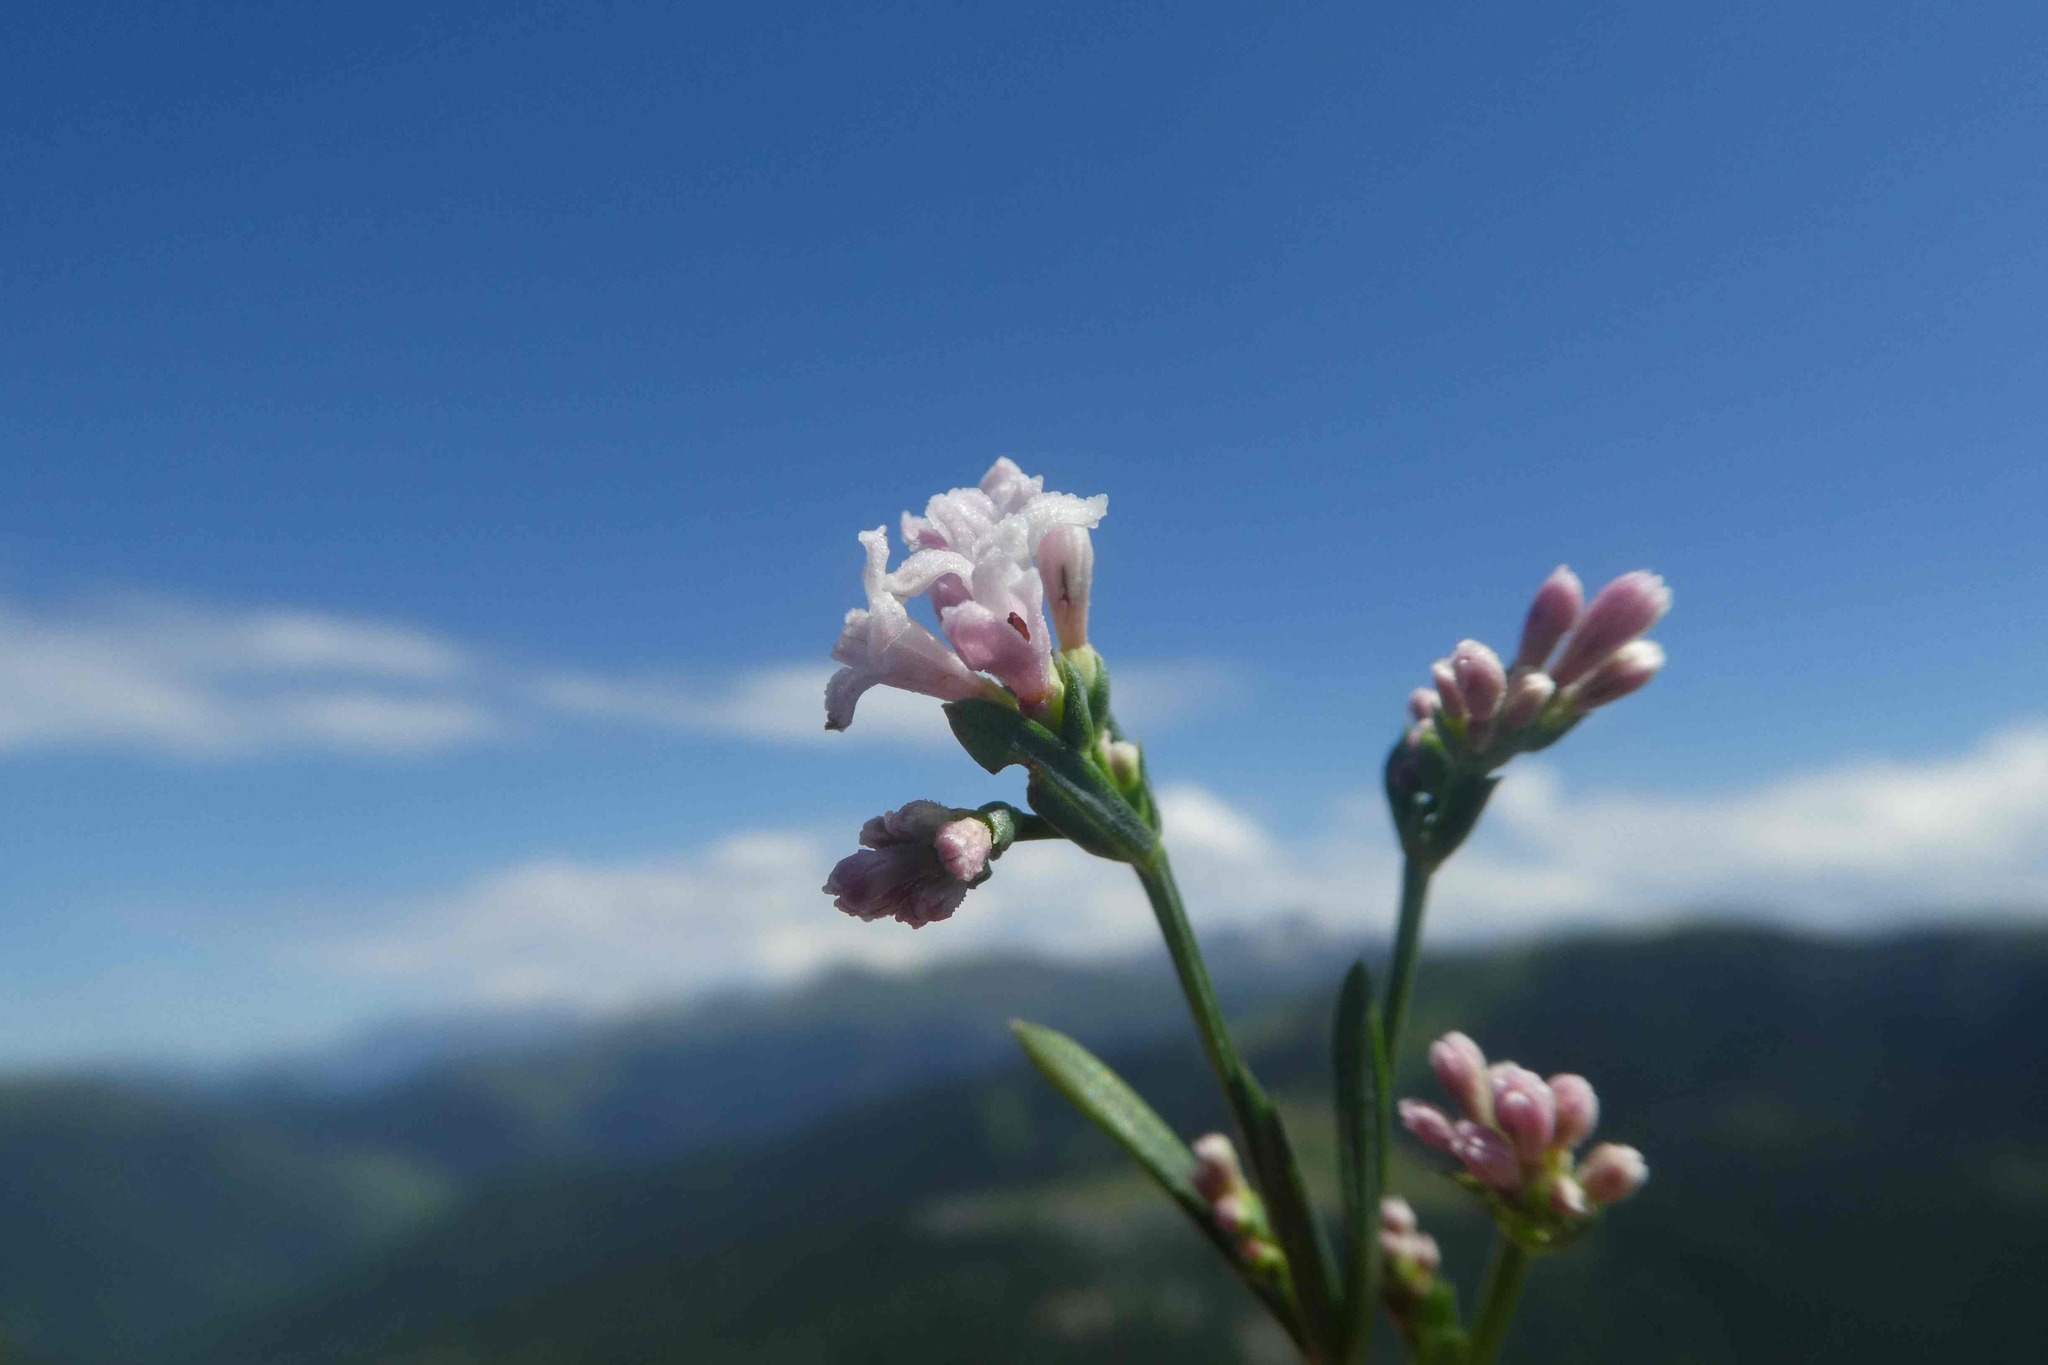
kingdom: Plantae
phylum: Tracheophyta
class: Magnoliopsida
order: Gentianales
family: Rubiaceae
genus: Cynanchica
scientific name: Cynanchica pyrenaica
